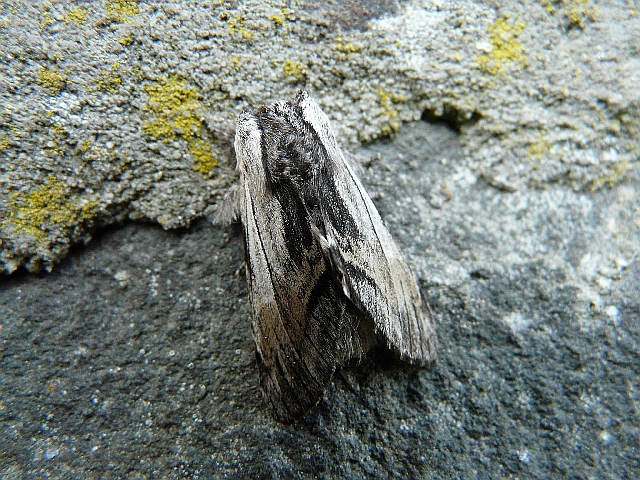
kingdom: Animalia
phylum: Arthropoda
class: Insecta
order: Lepidoptera
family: Notodontidae
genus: Harpyia
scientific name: Harpyia milhauseri
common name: Tawny prominent
